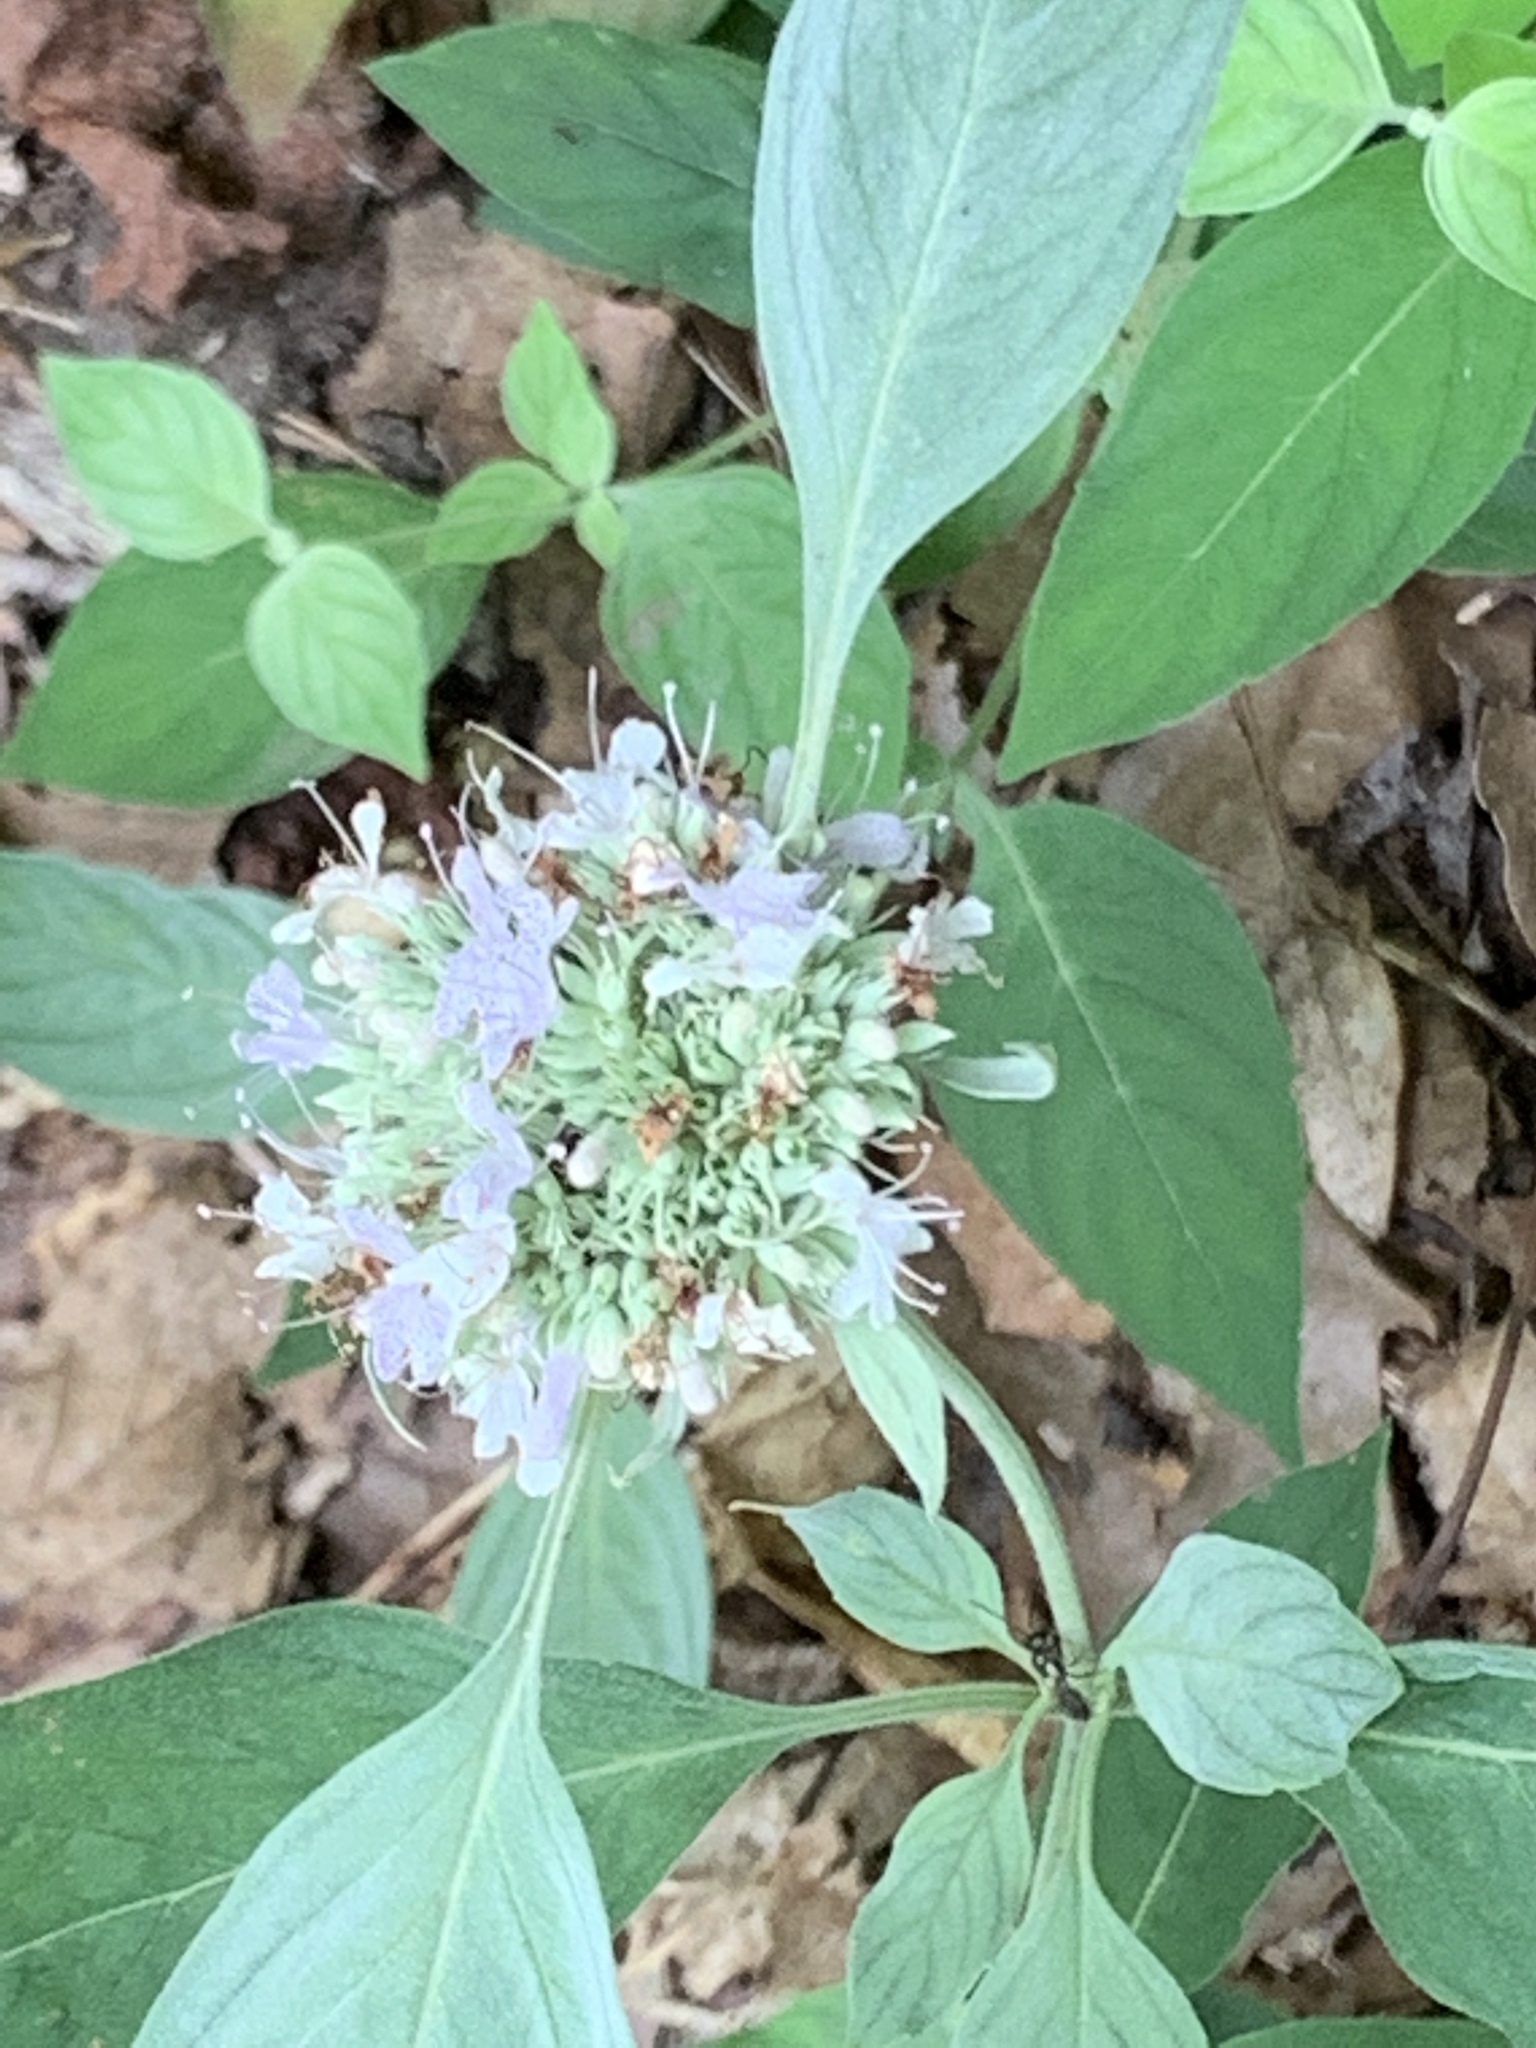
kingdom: Plantae
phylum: Tracheophyta
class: Magnoliopsida
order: Lamiales
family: Lamiaceae
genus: Pycnanthemum
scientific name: Pycnanthemum muticum
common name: Blunt mountain-mint
